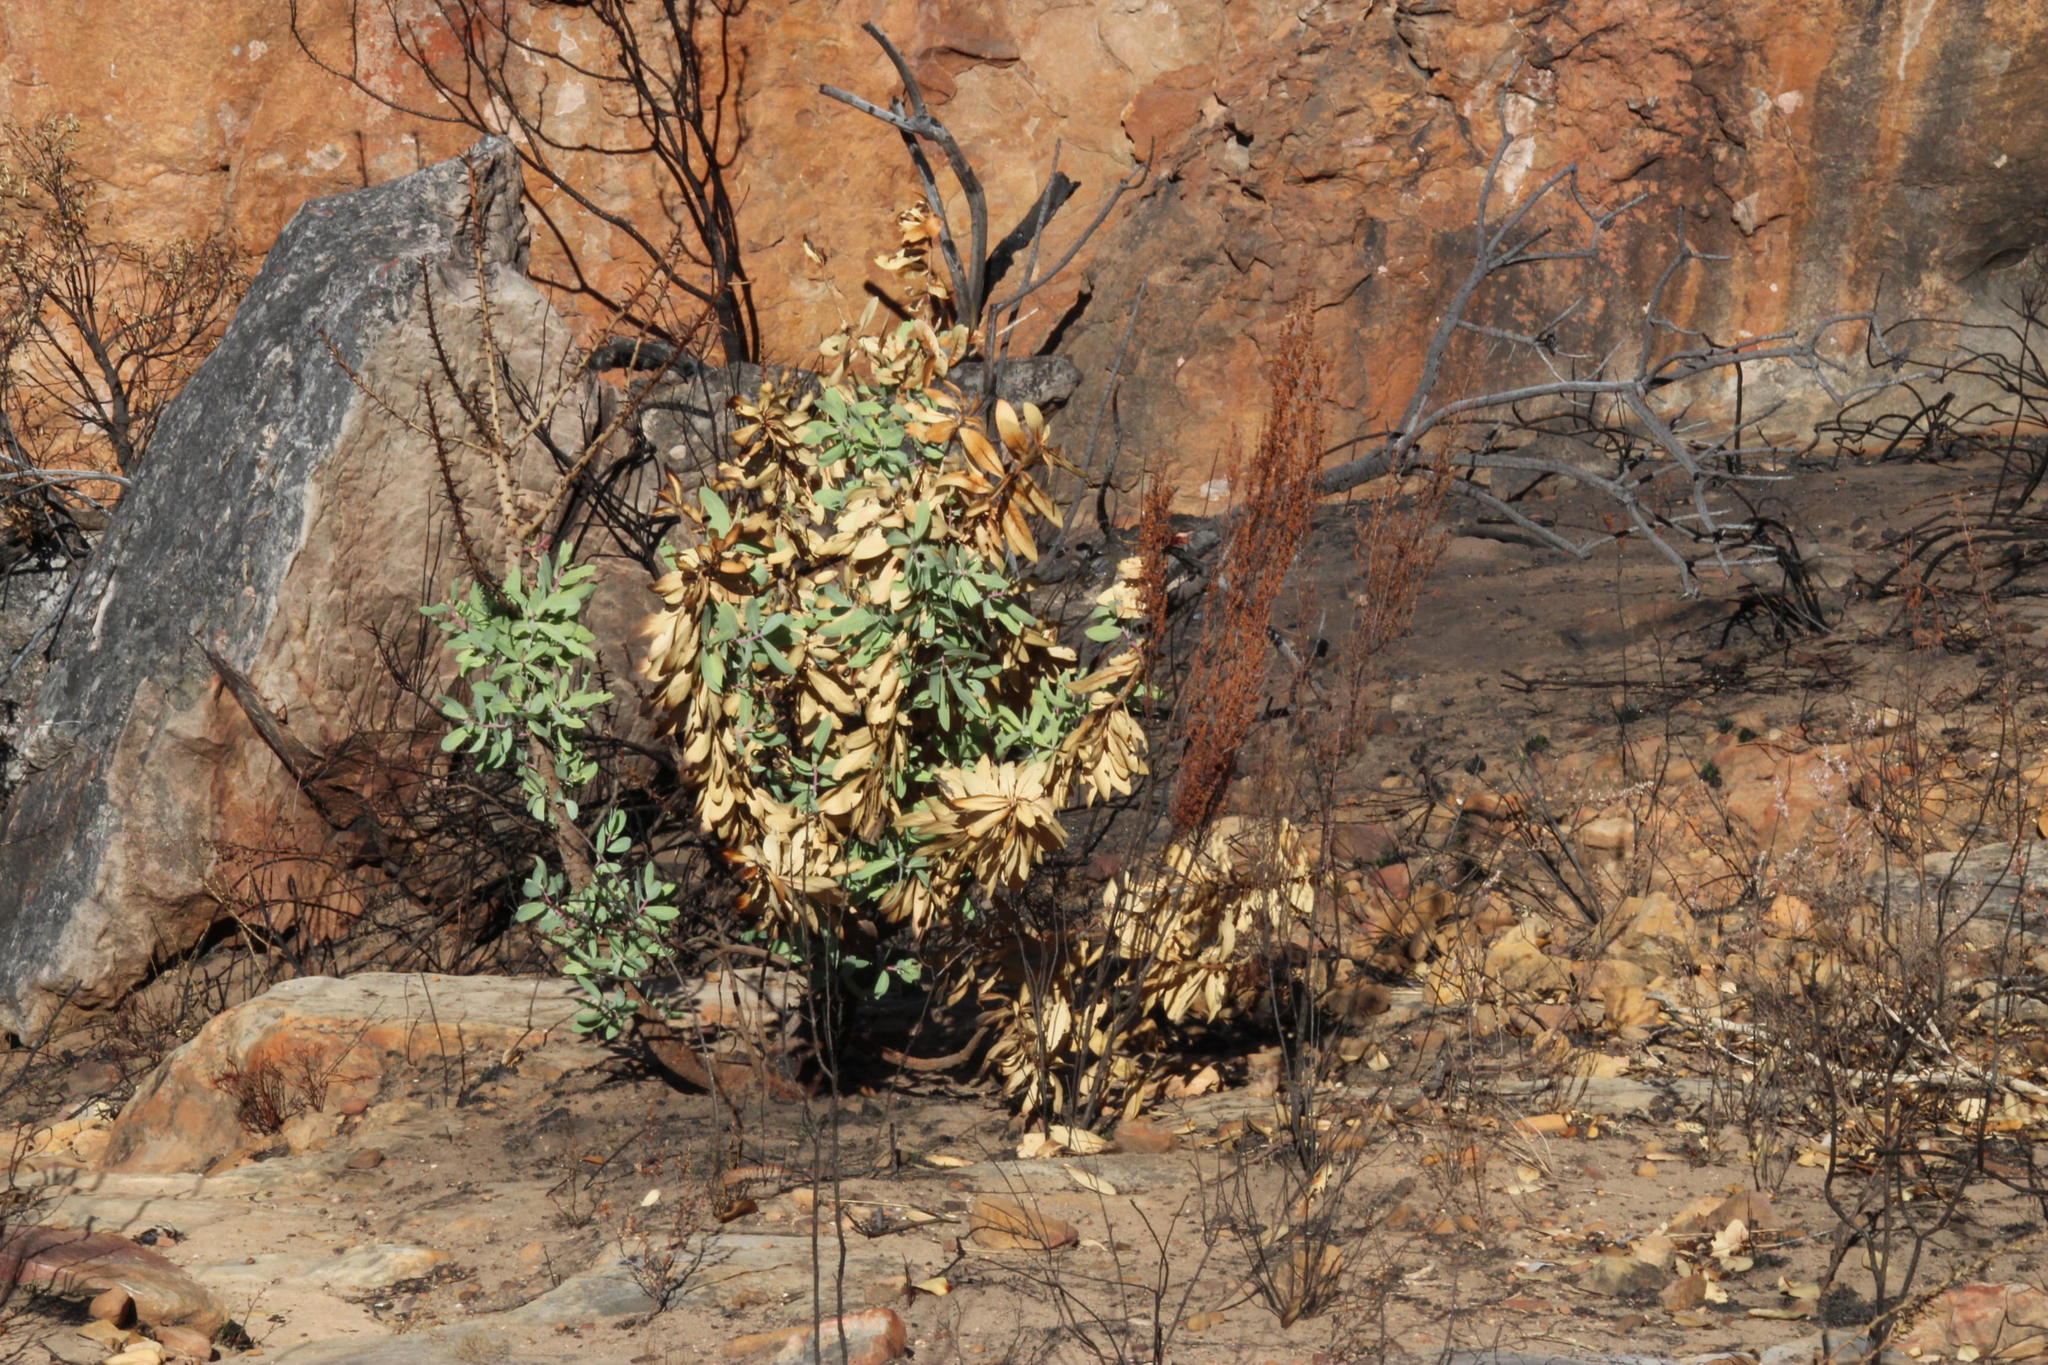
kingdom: Plantae
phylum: Tracheophyta
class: Magnoliopsida
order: Proteales
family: Proteaceae
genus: Protea
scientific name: Protea nitida
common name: Tree protea
